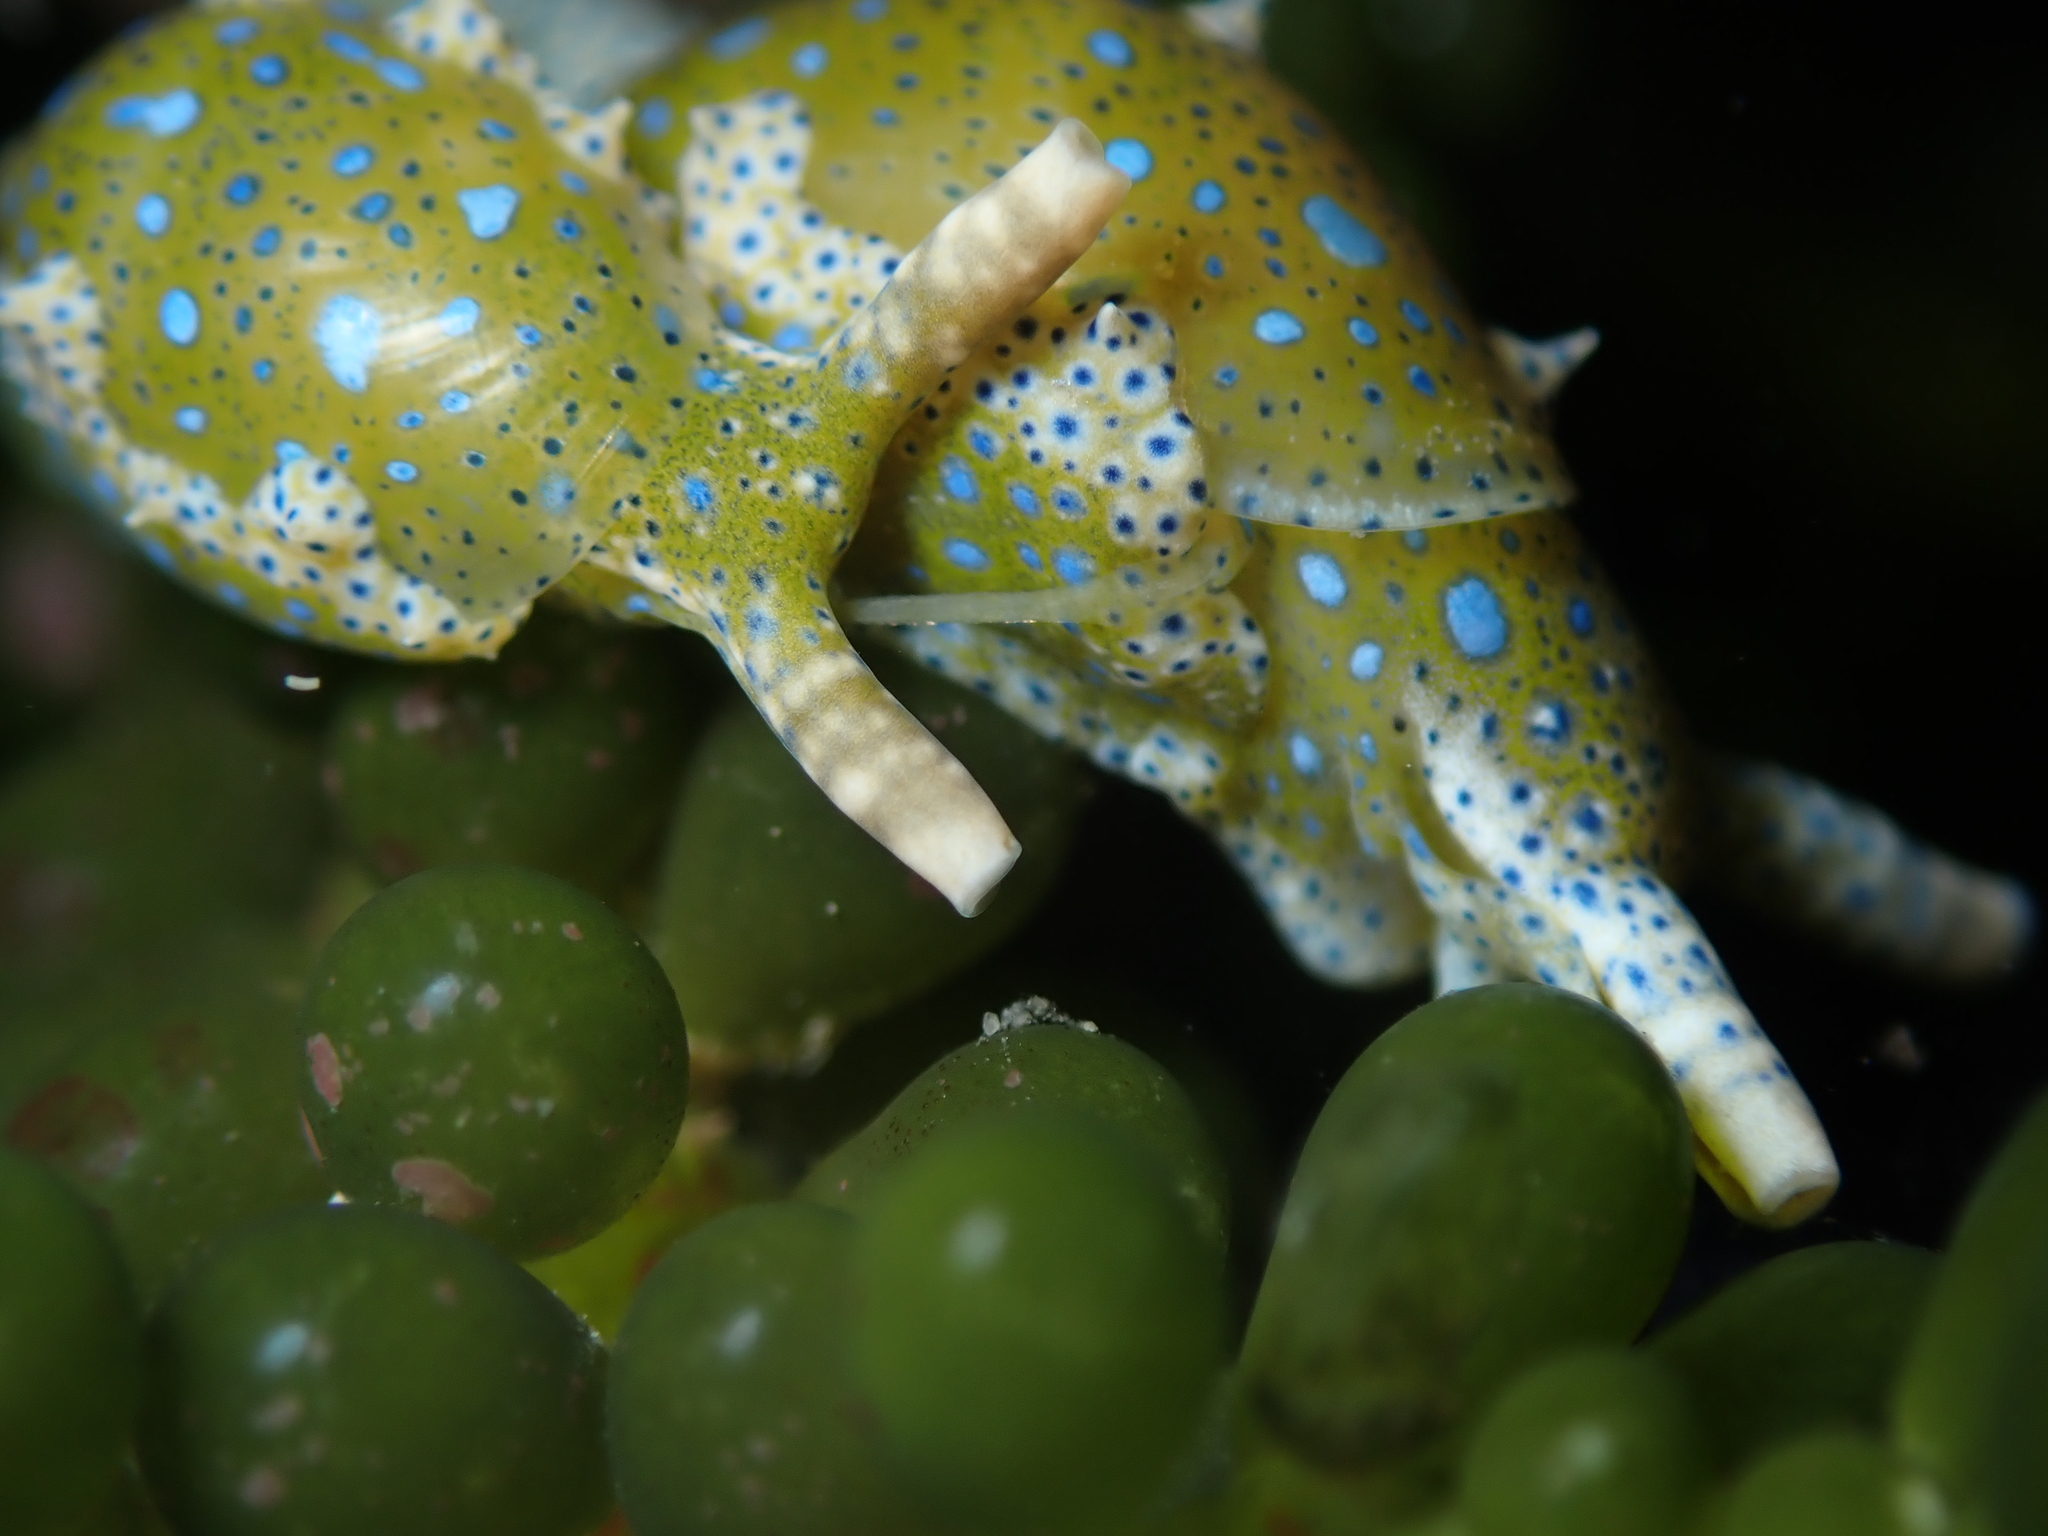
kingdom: Animalia
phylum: Mollusca
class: Gastropoda
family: Oxynoidae
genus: Oxynoe
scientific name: Oxynoe viridis
